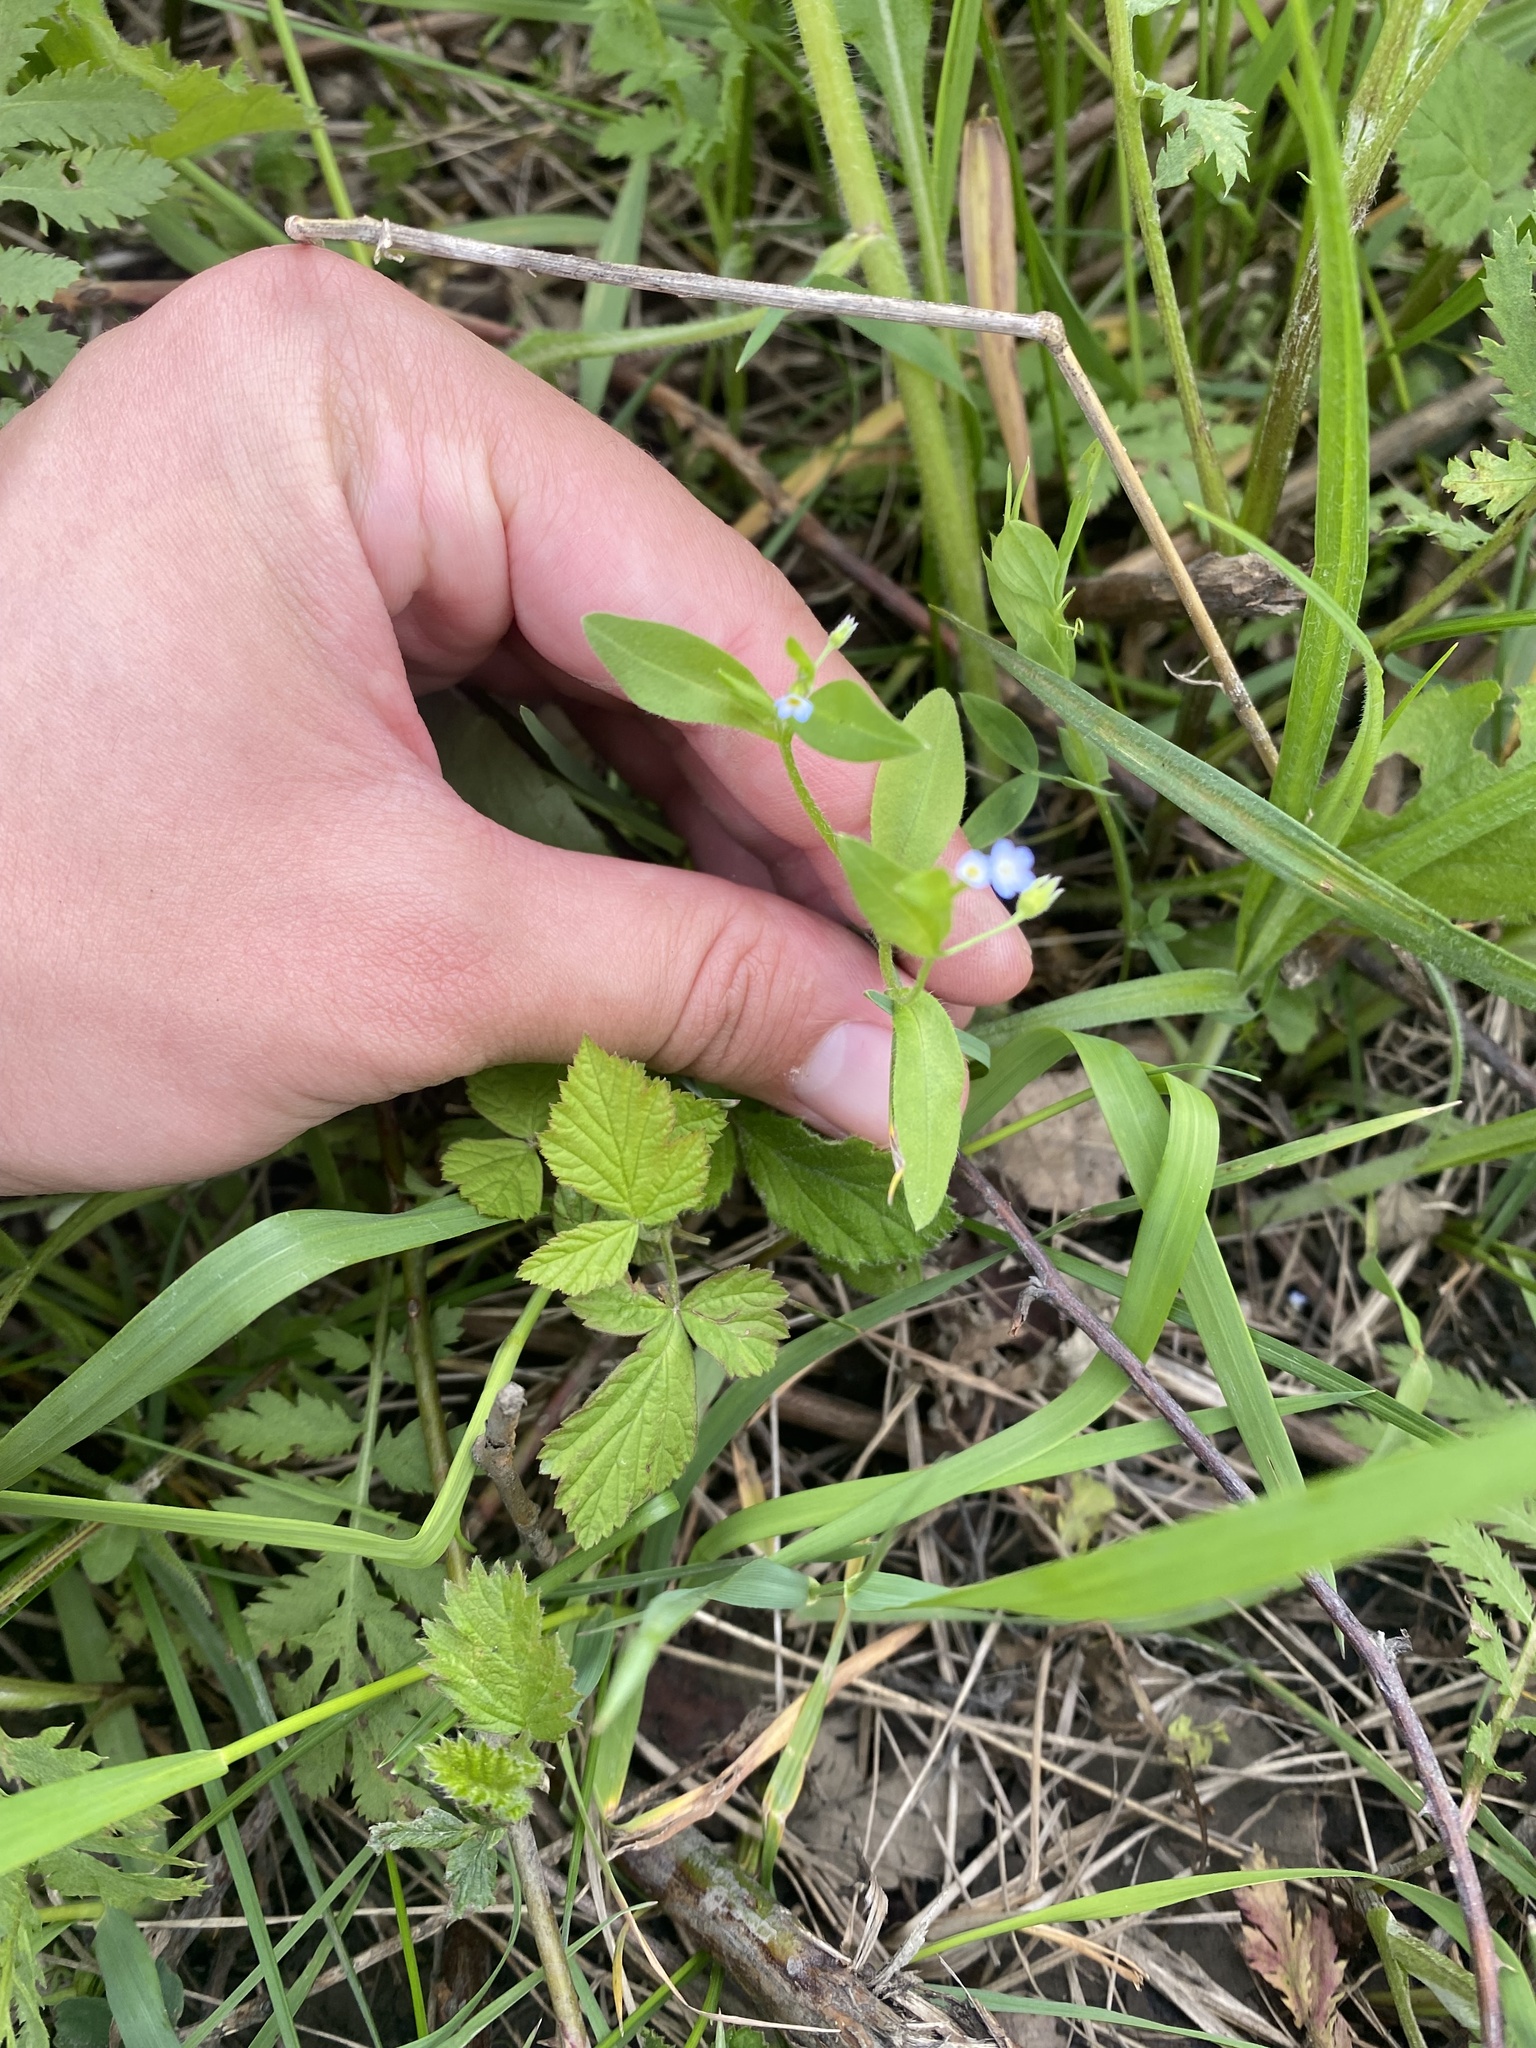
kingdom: Plantae
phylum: Tracheophyta
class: Magnoliopsida
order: Boraginales
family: Boraginaceae
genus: Myosotis
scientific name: Myosotis sparsiflora
